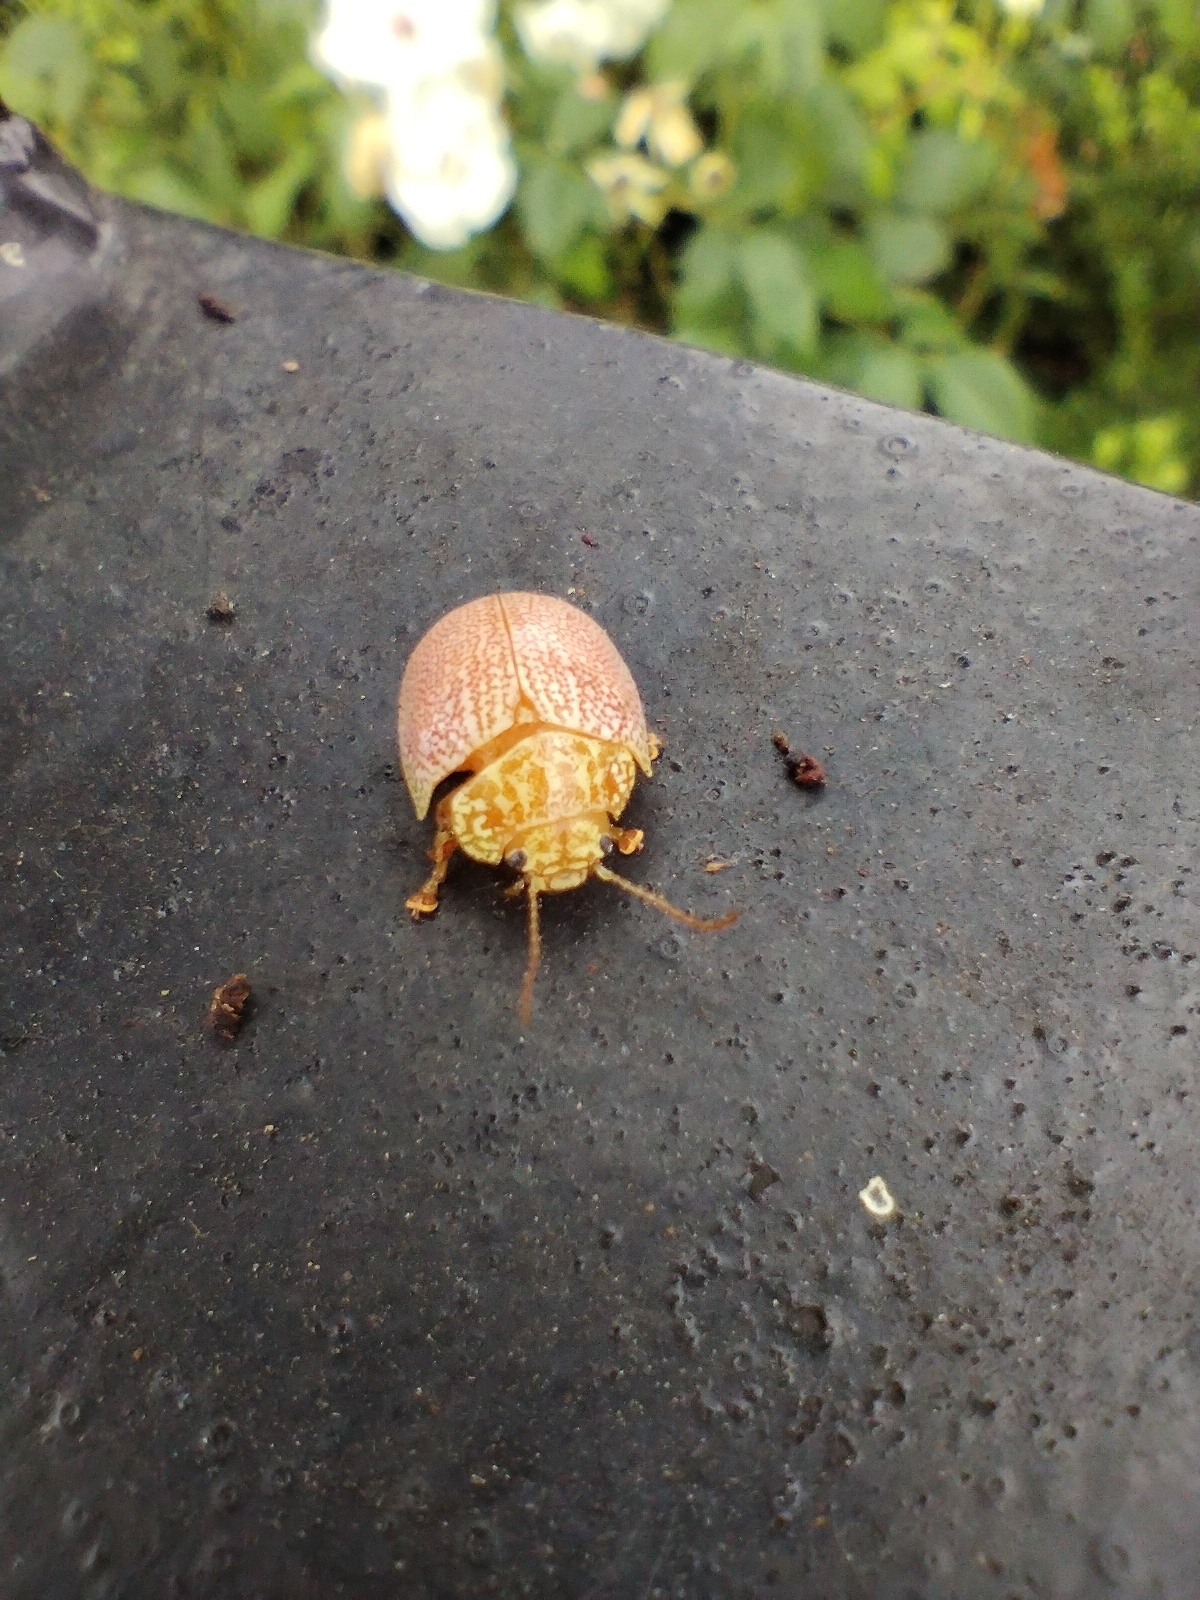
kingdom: Animalia
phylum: Arthropoda
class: Insecta
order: Coleoptera
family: Chrysomelidae
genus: Paropsis
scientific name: Paropsis
